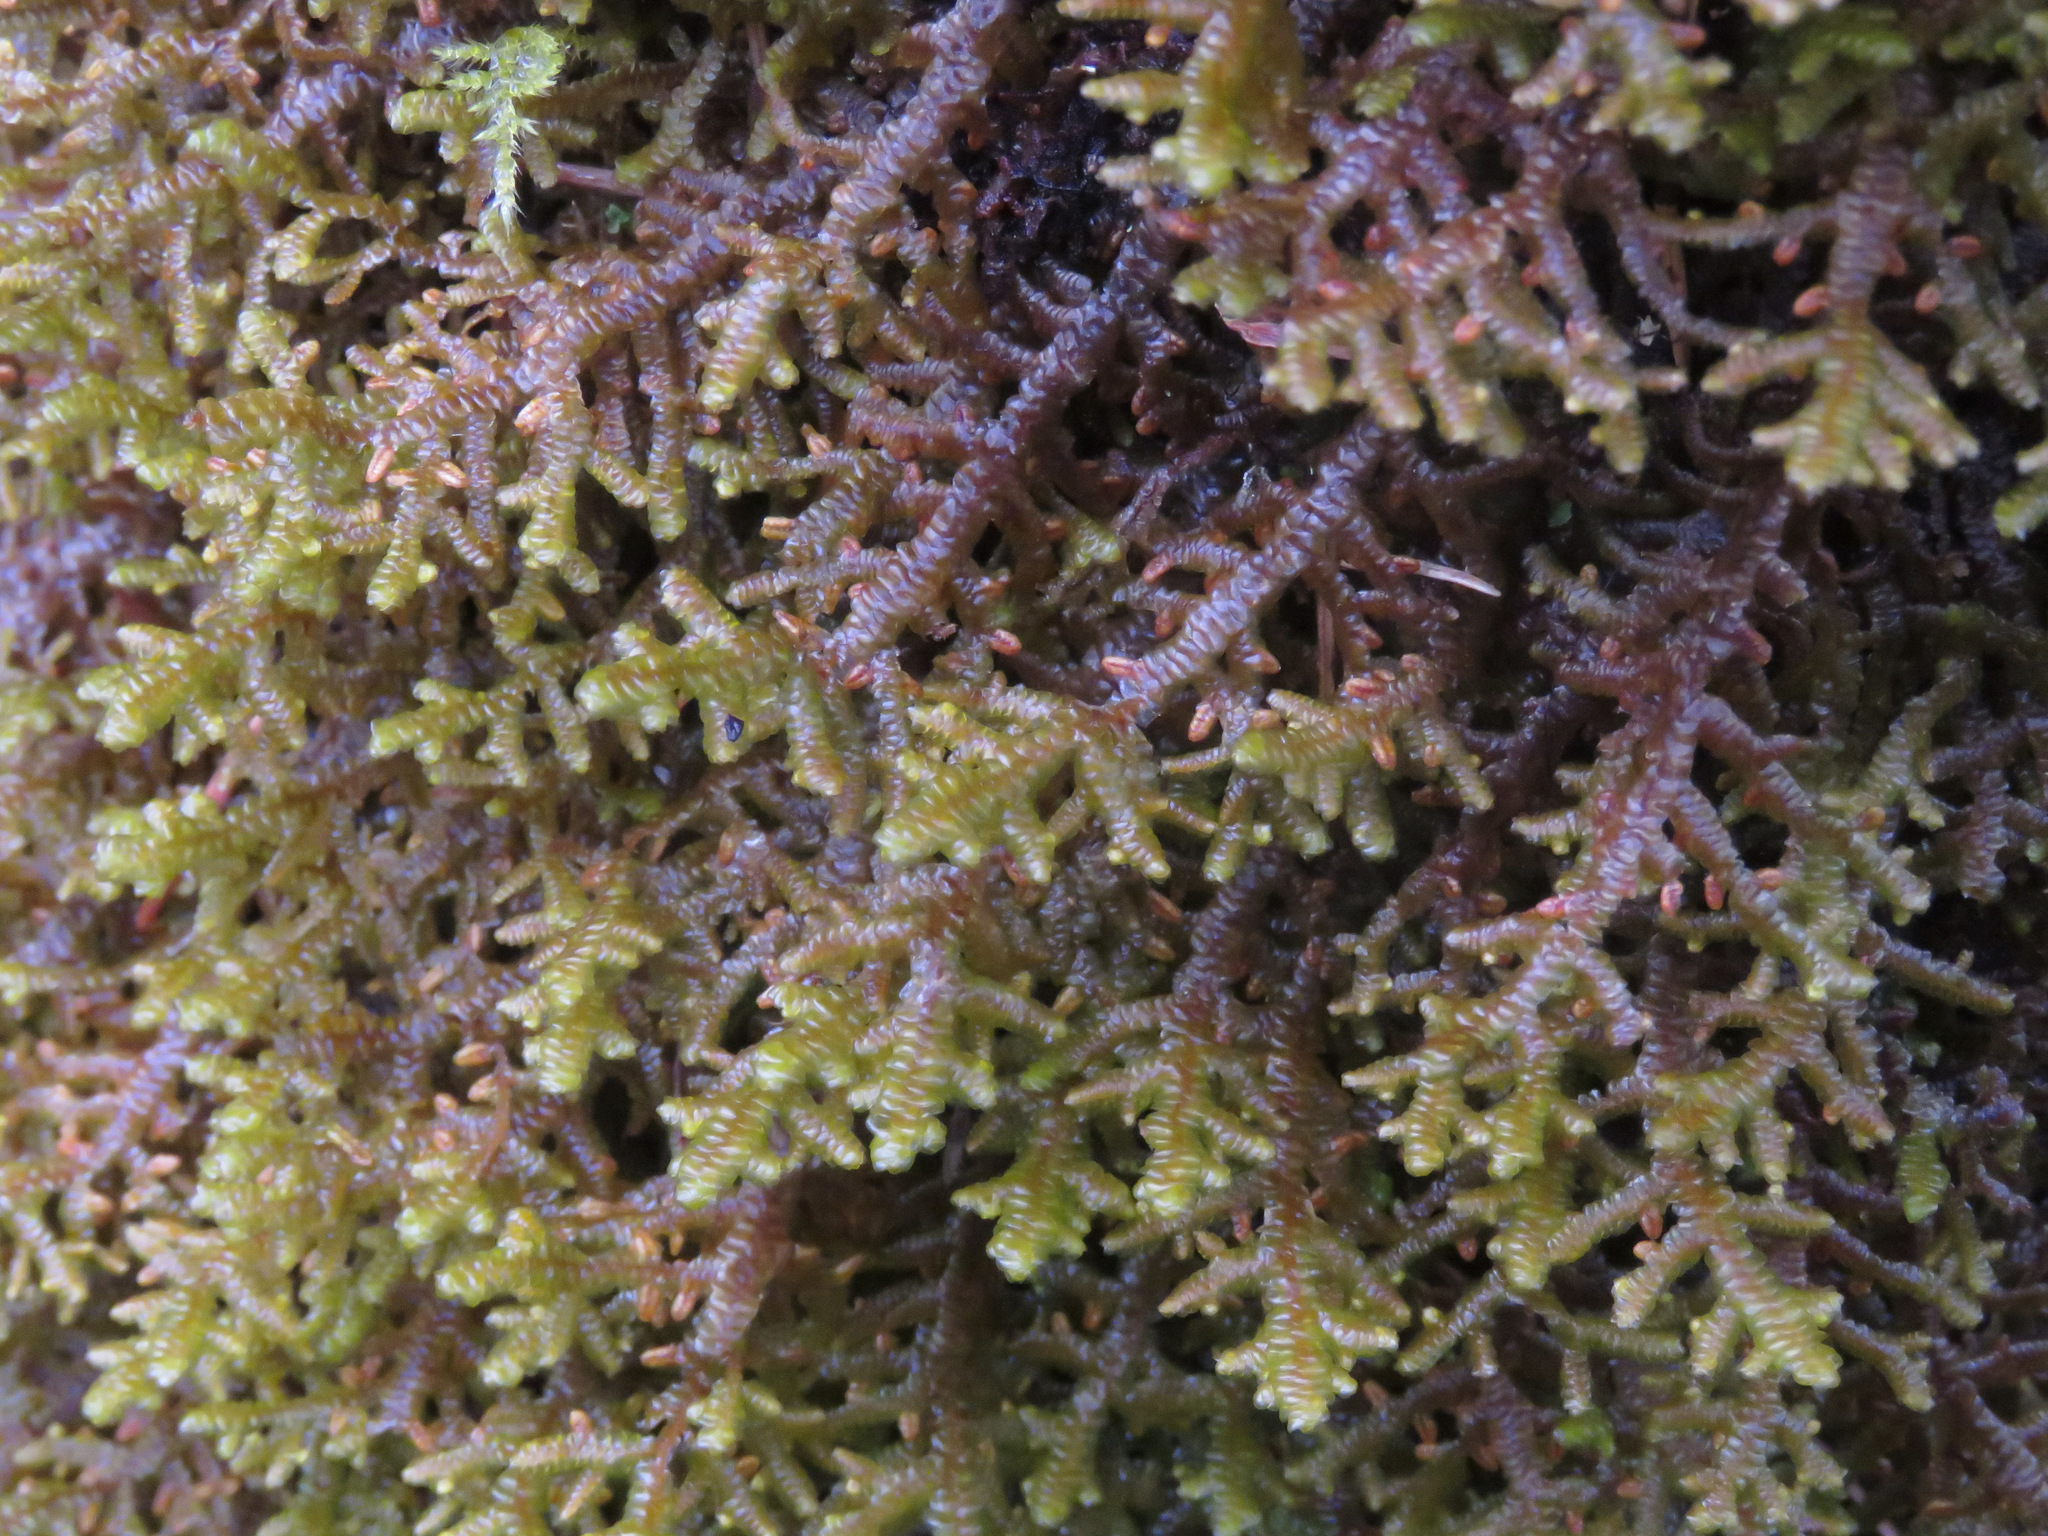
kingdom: Plantae
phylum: Marchantiophyta
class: Jungermanniopsida
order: Porellales
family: Porellaceae
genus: Porella
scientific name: Porella navicularis
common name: Tree ruffle liverwort
